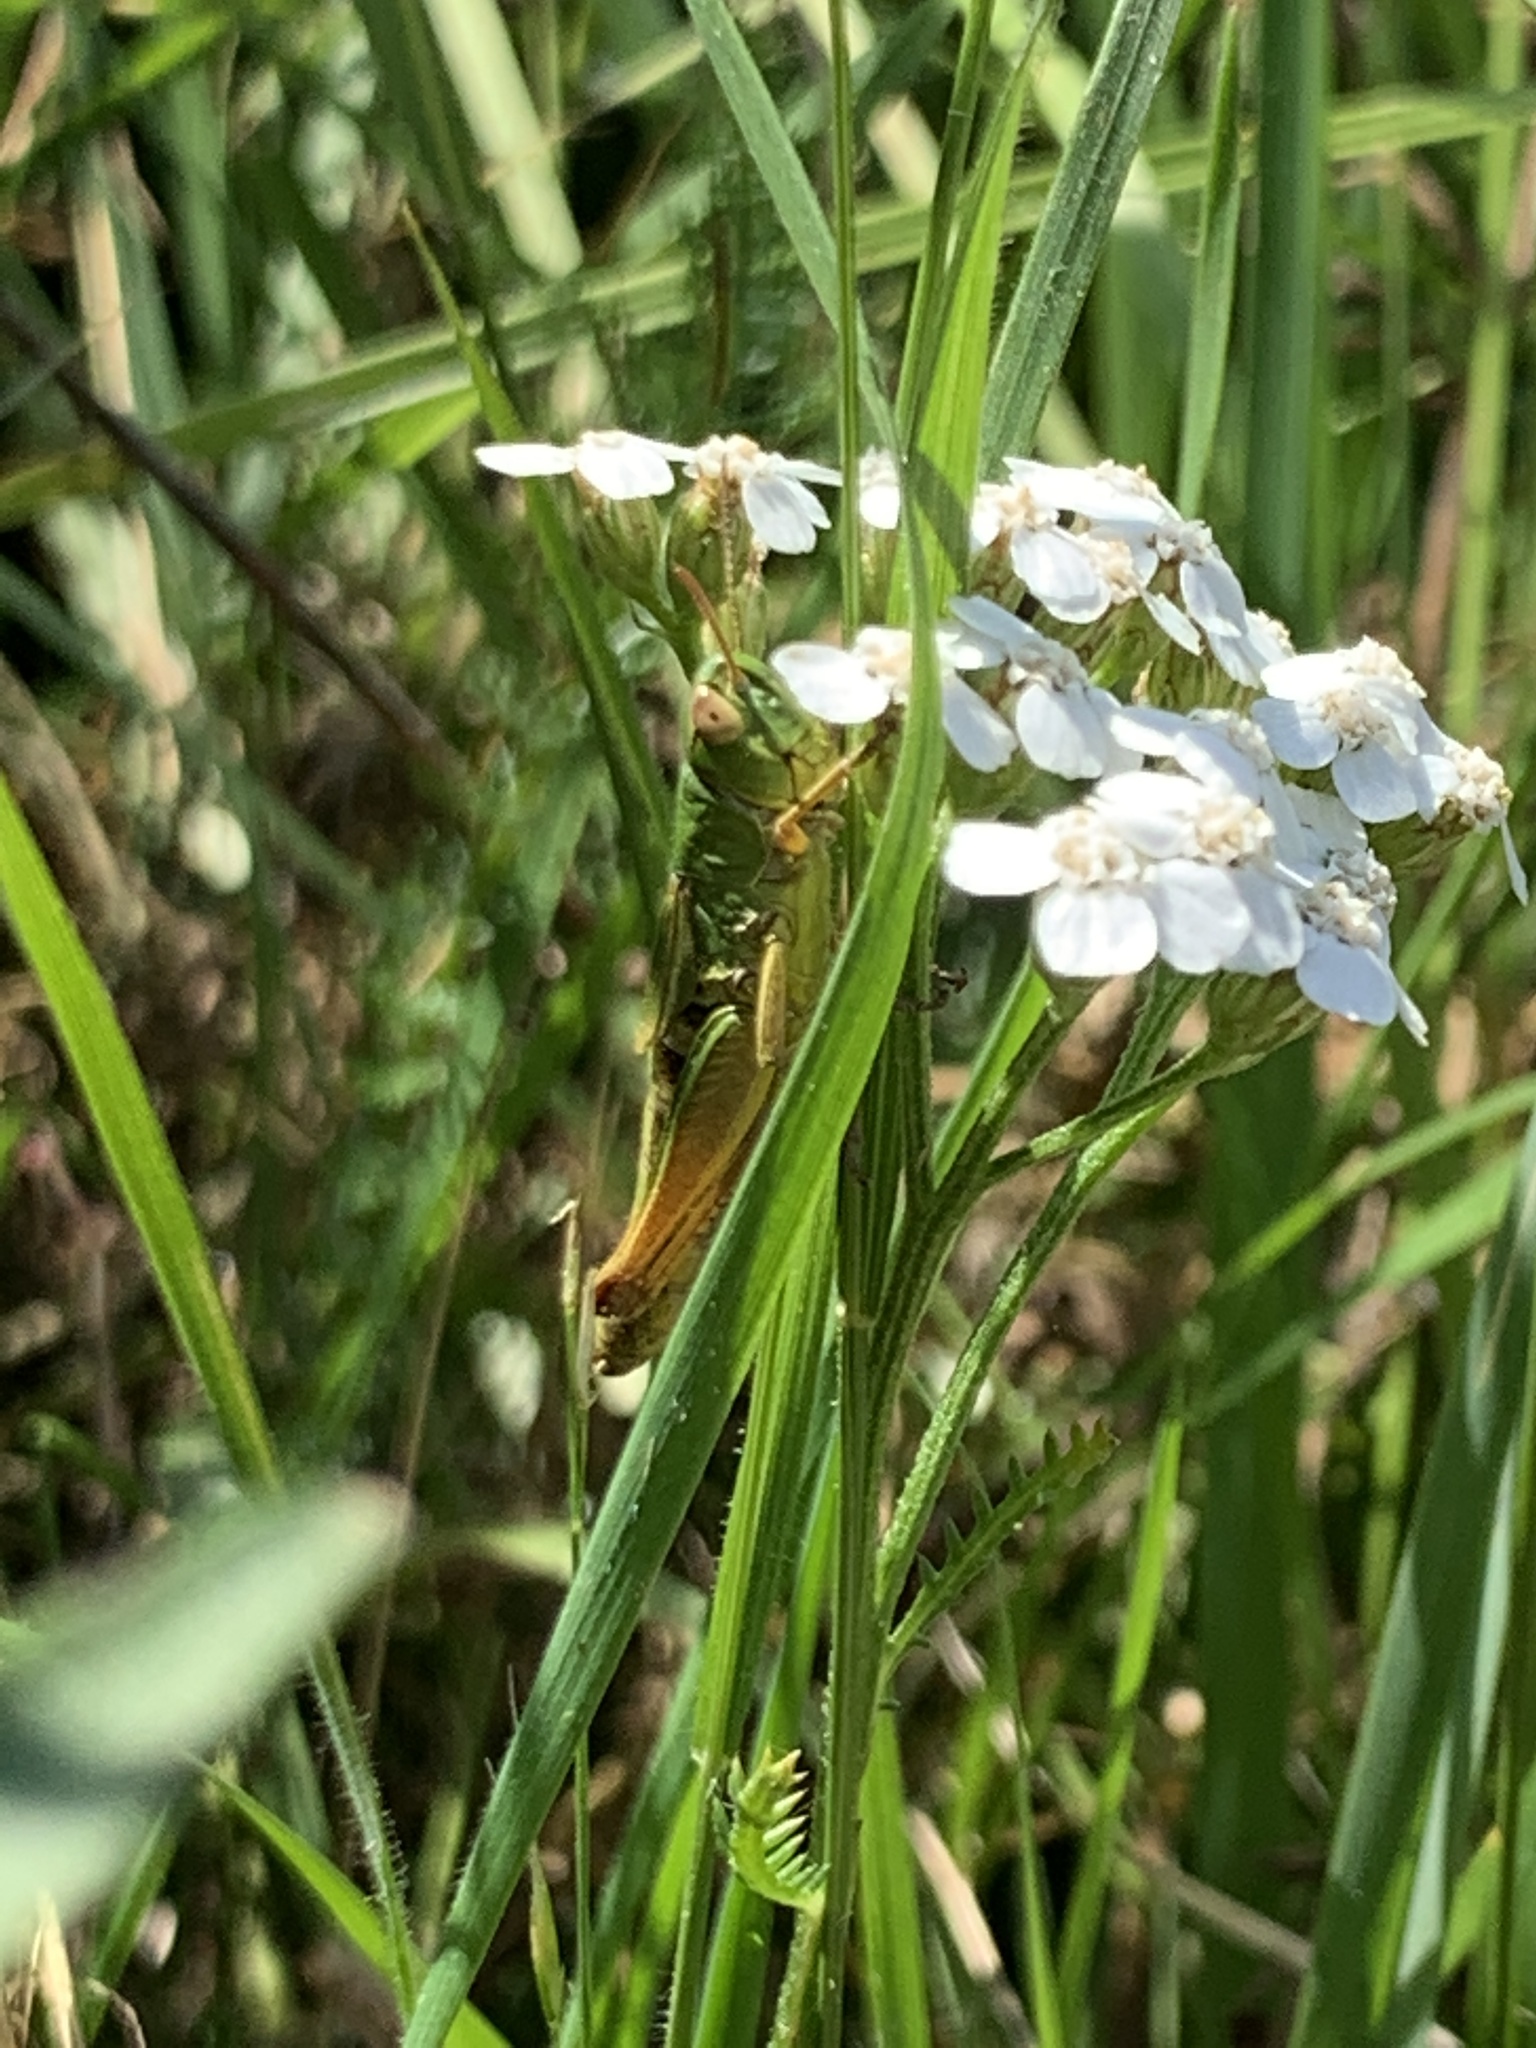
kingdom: Animalia
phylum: Arthropoda
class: Insecta
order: Orthoptera
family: Acrididae
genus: Pseudochorthippus
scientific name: Pseudochorthippus parallelus
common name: Meadow grasshopper
